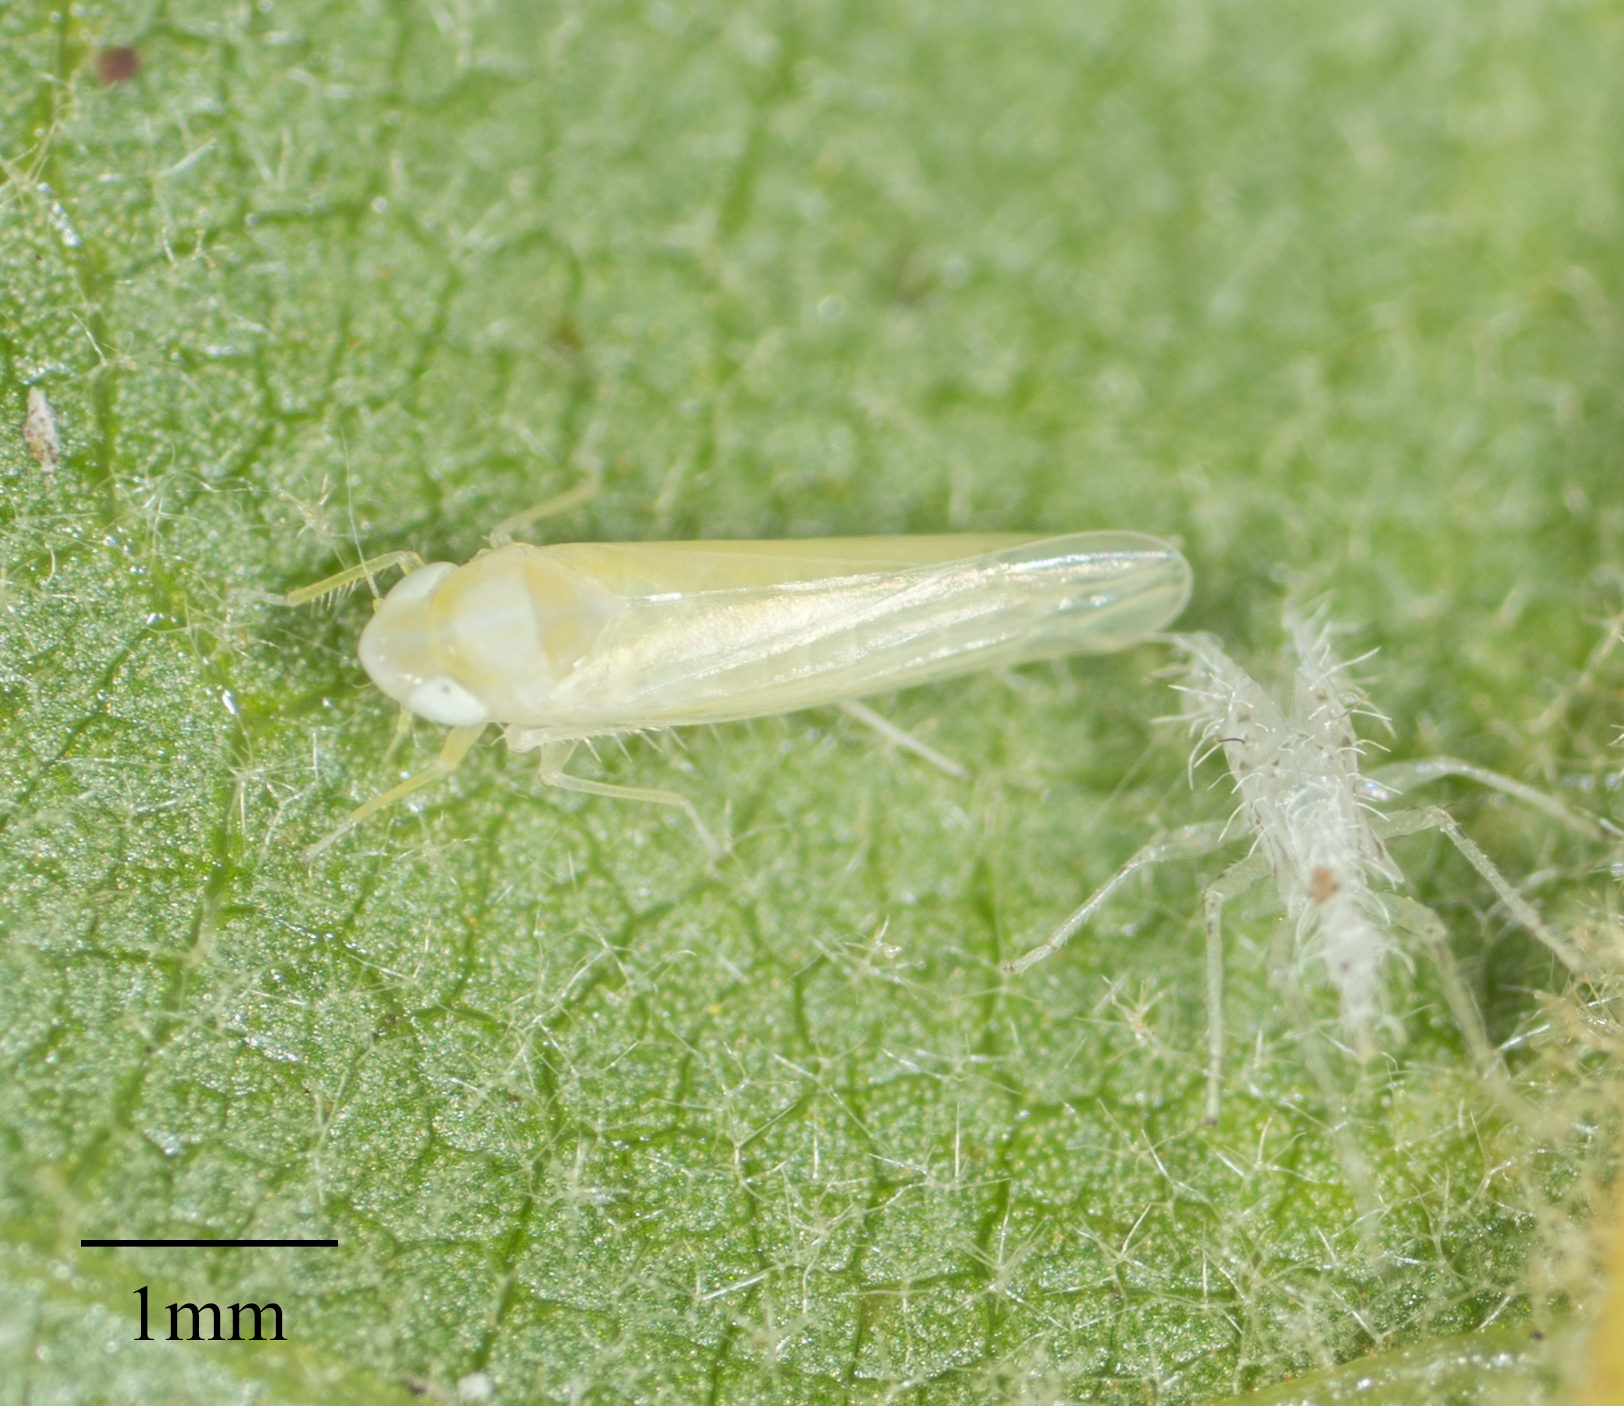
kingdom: Animalia
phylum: Arthropoda
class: Insecta
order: Hemiptera
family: Cicadellidae
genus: Alconeura
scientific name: Alconeura quadrimaculata
